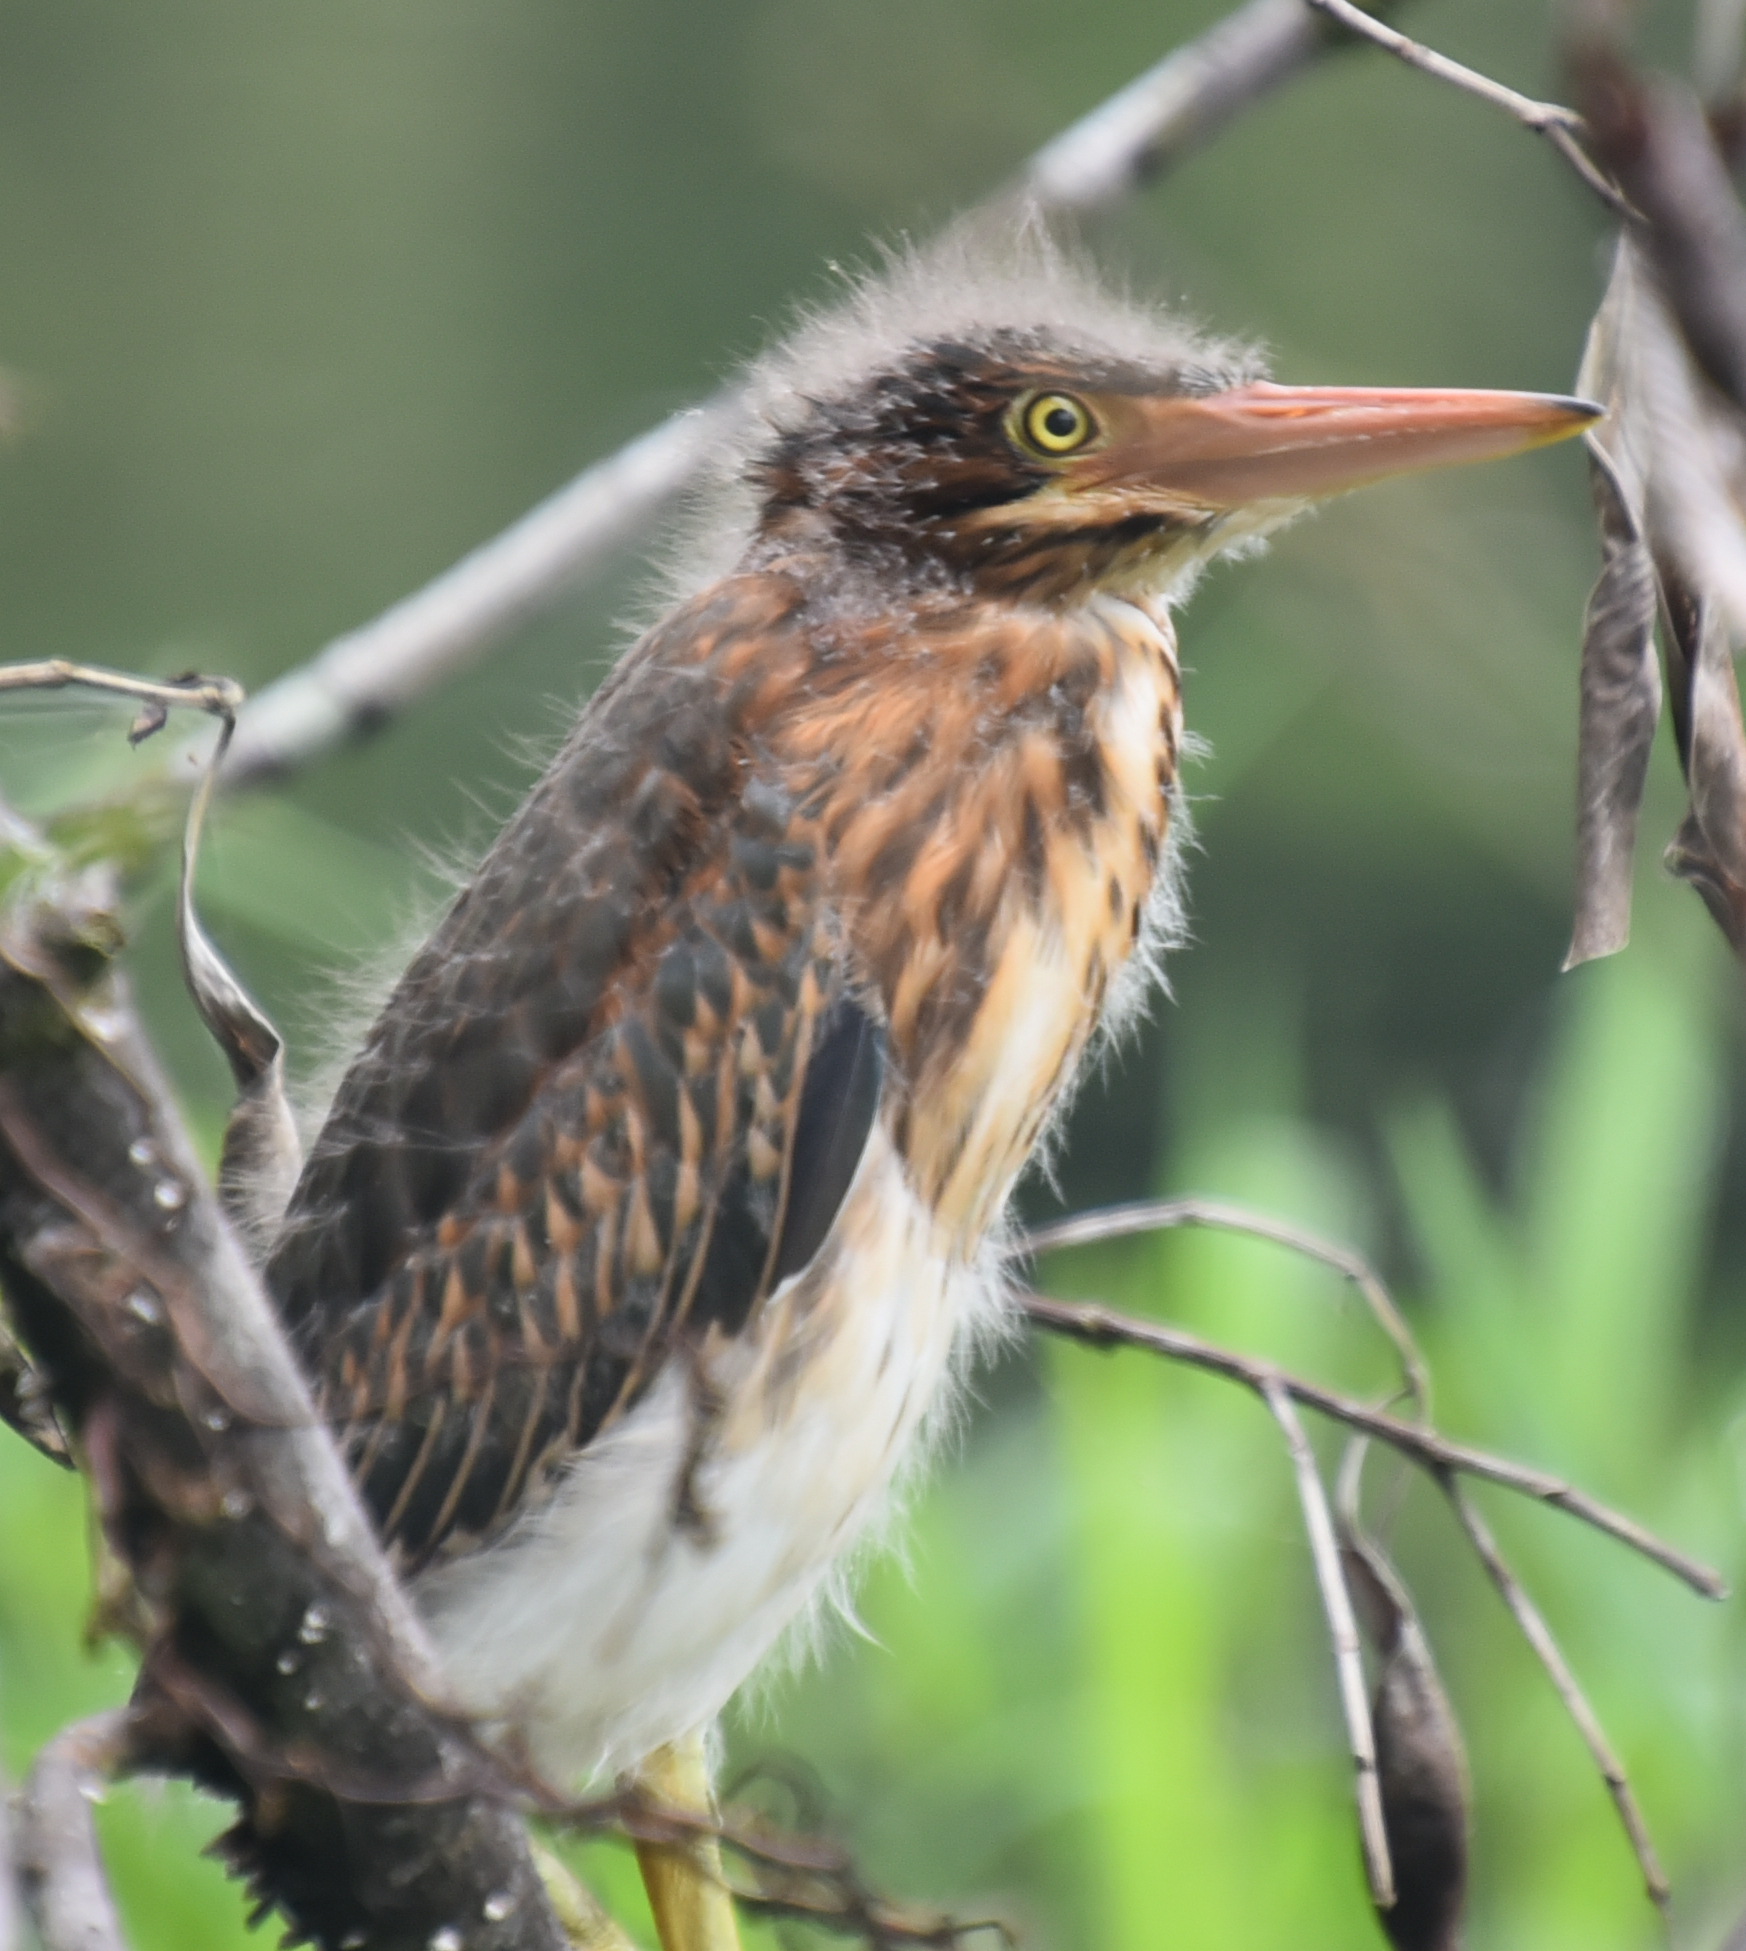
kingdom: Animalia
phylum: Chordata
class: Aves
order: Pelecaniformes
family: Ardeidae
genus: Butorides
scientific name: Butorides virescens
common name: Green heron
